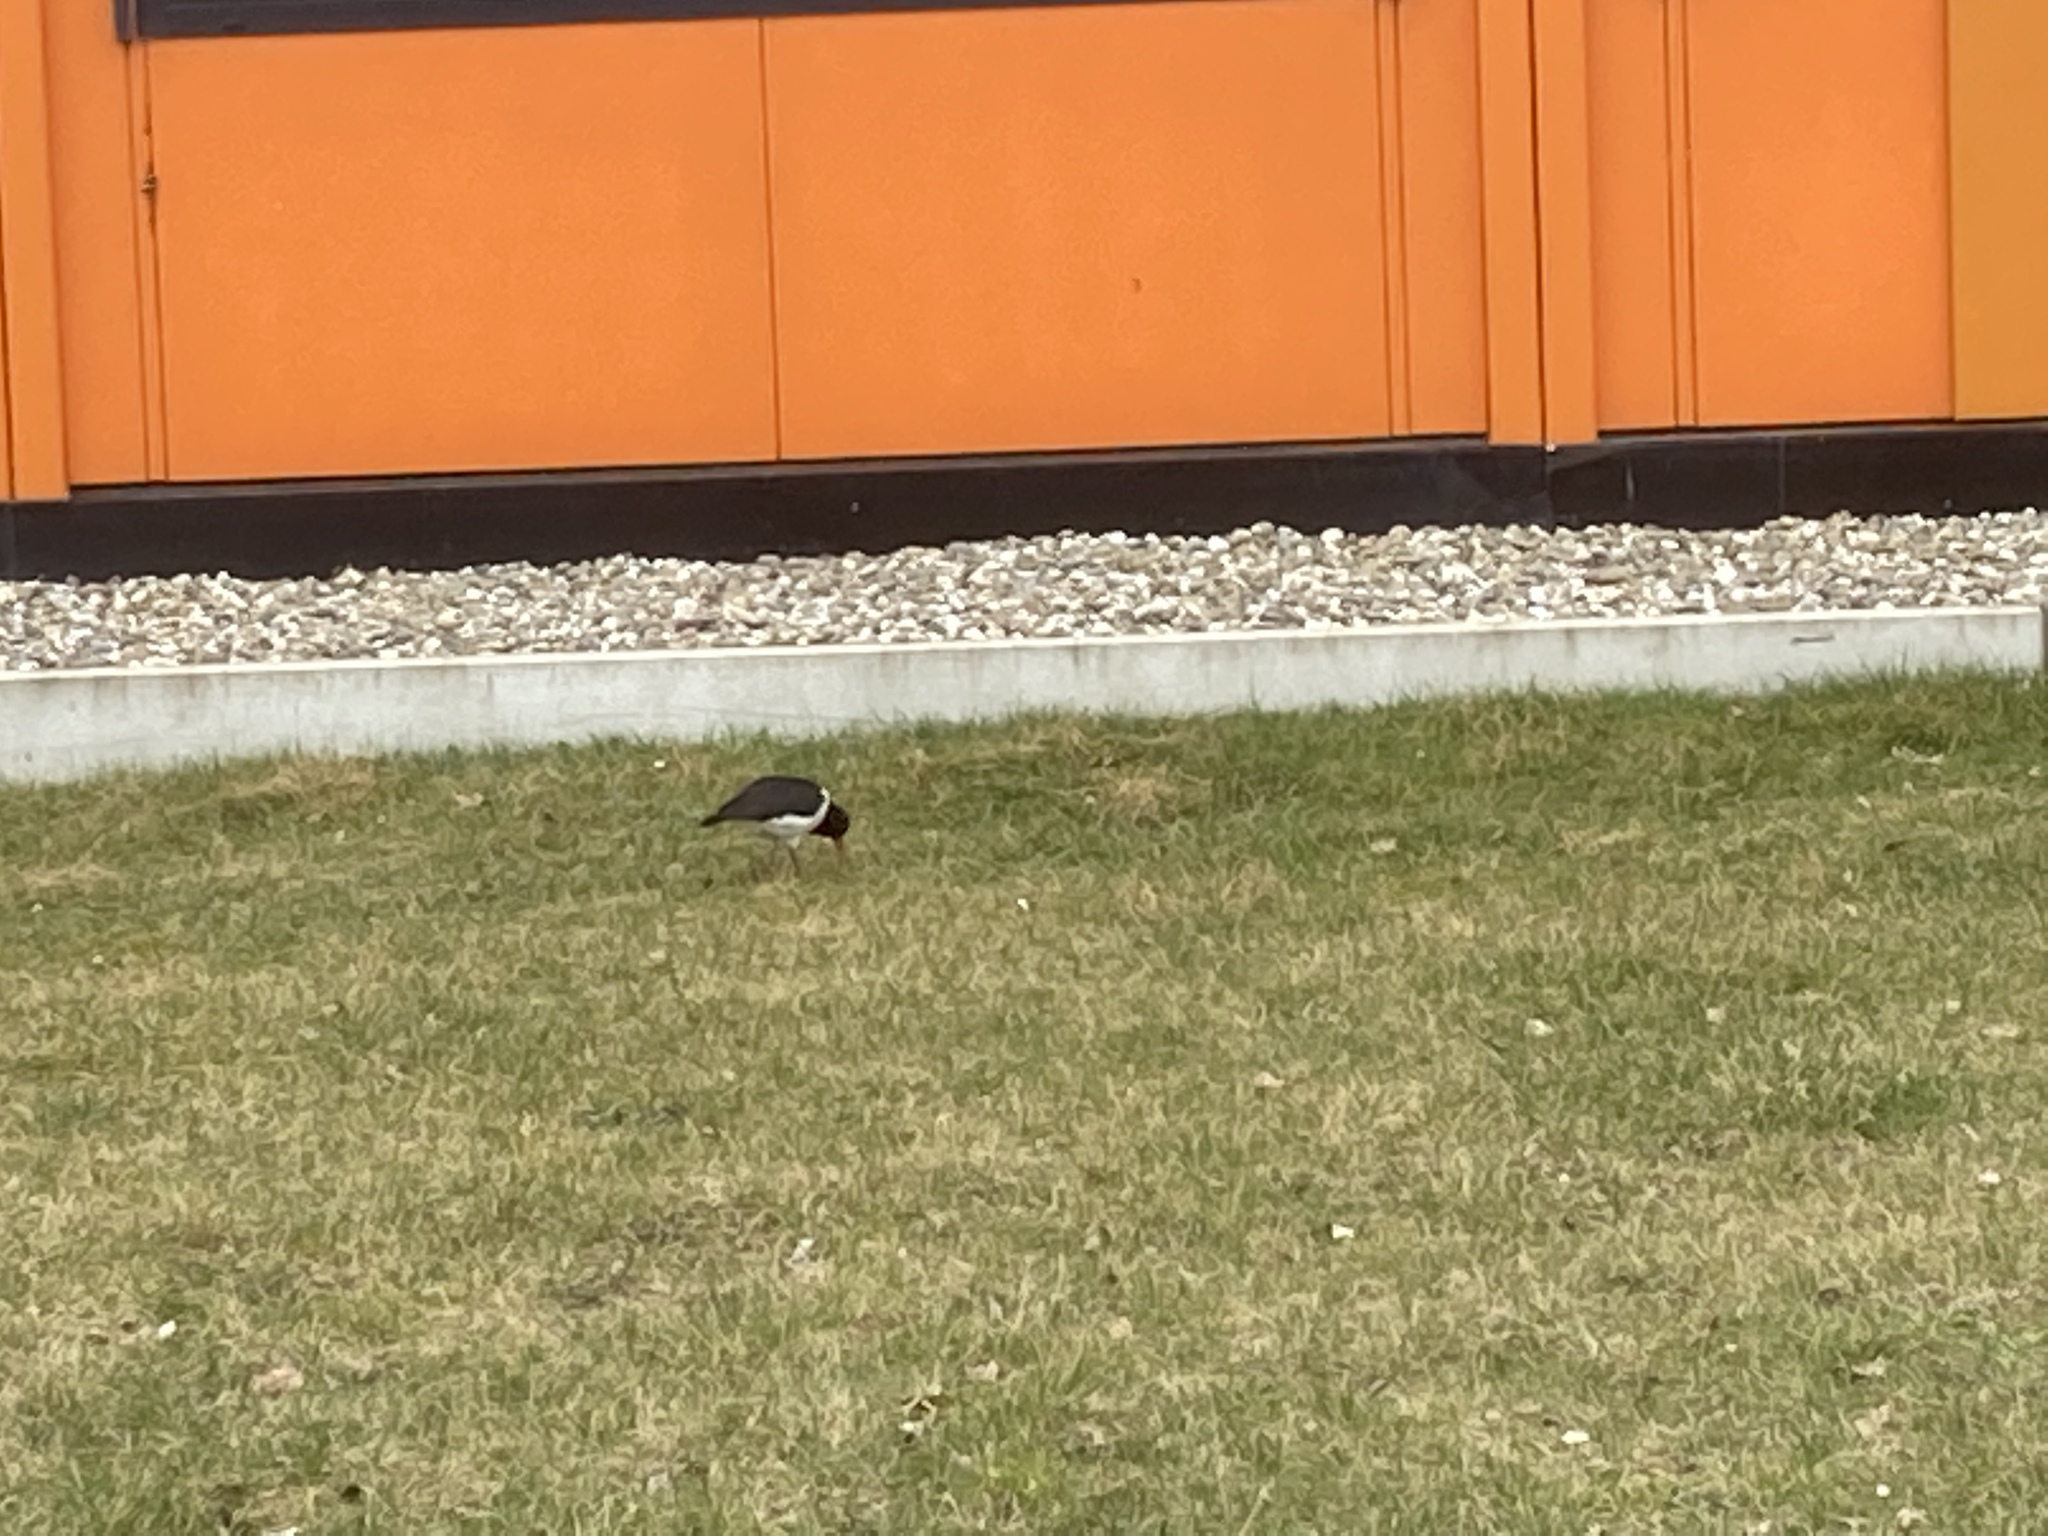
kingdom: Animalia
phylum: Chordata
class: Aves
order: Charadriiformes
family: Haematopodidae
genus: Haematopus
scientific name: Haematopus ostralegus
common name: Eurasian oystercatcher
